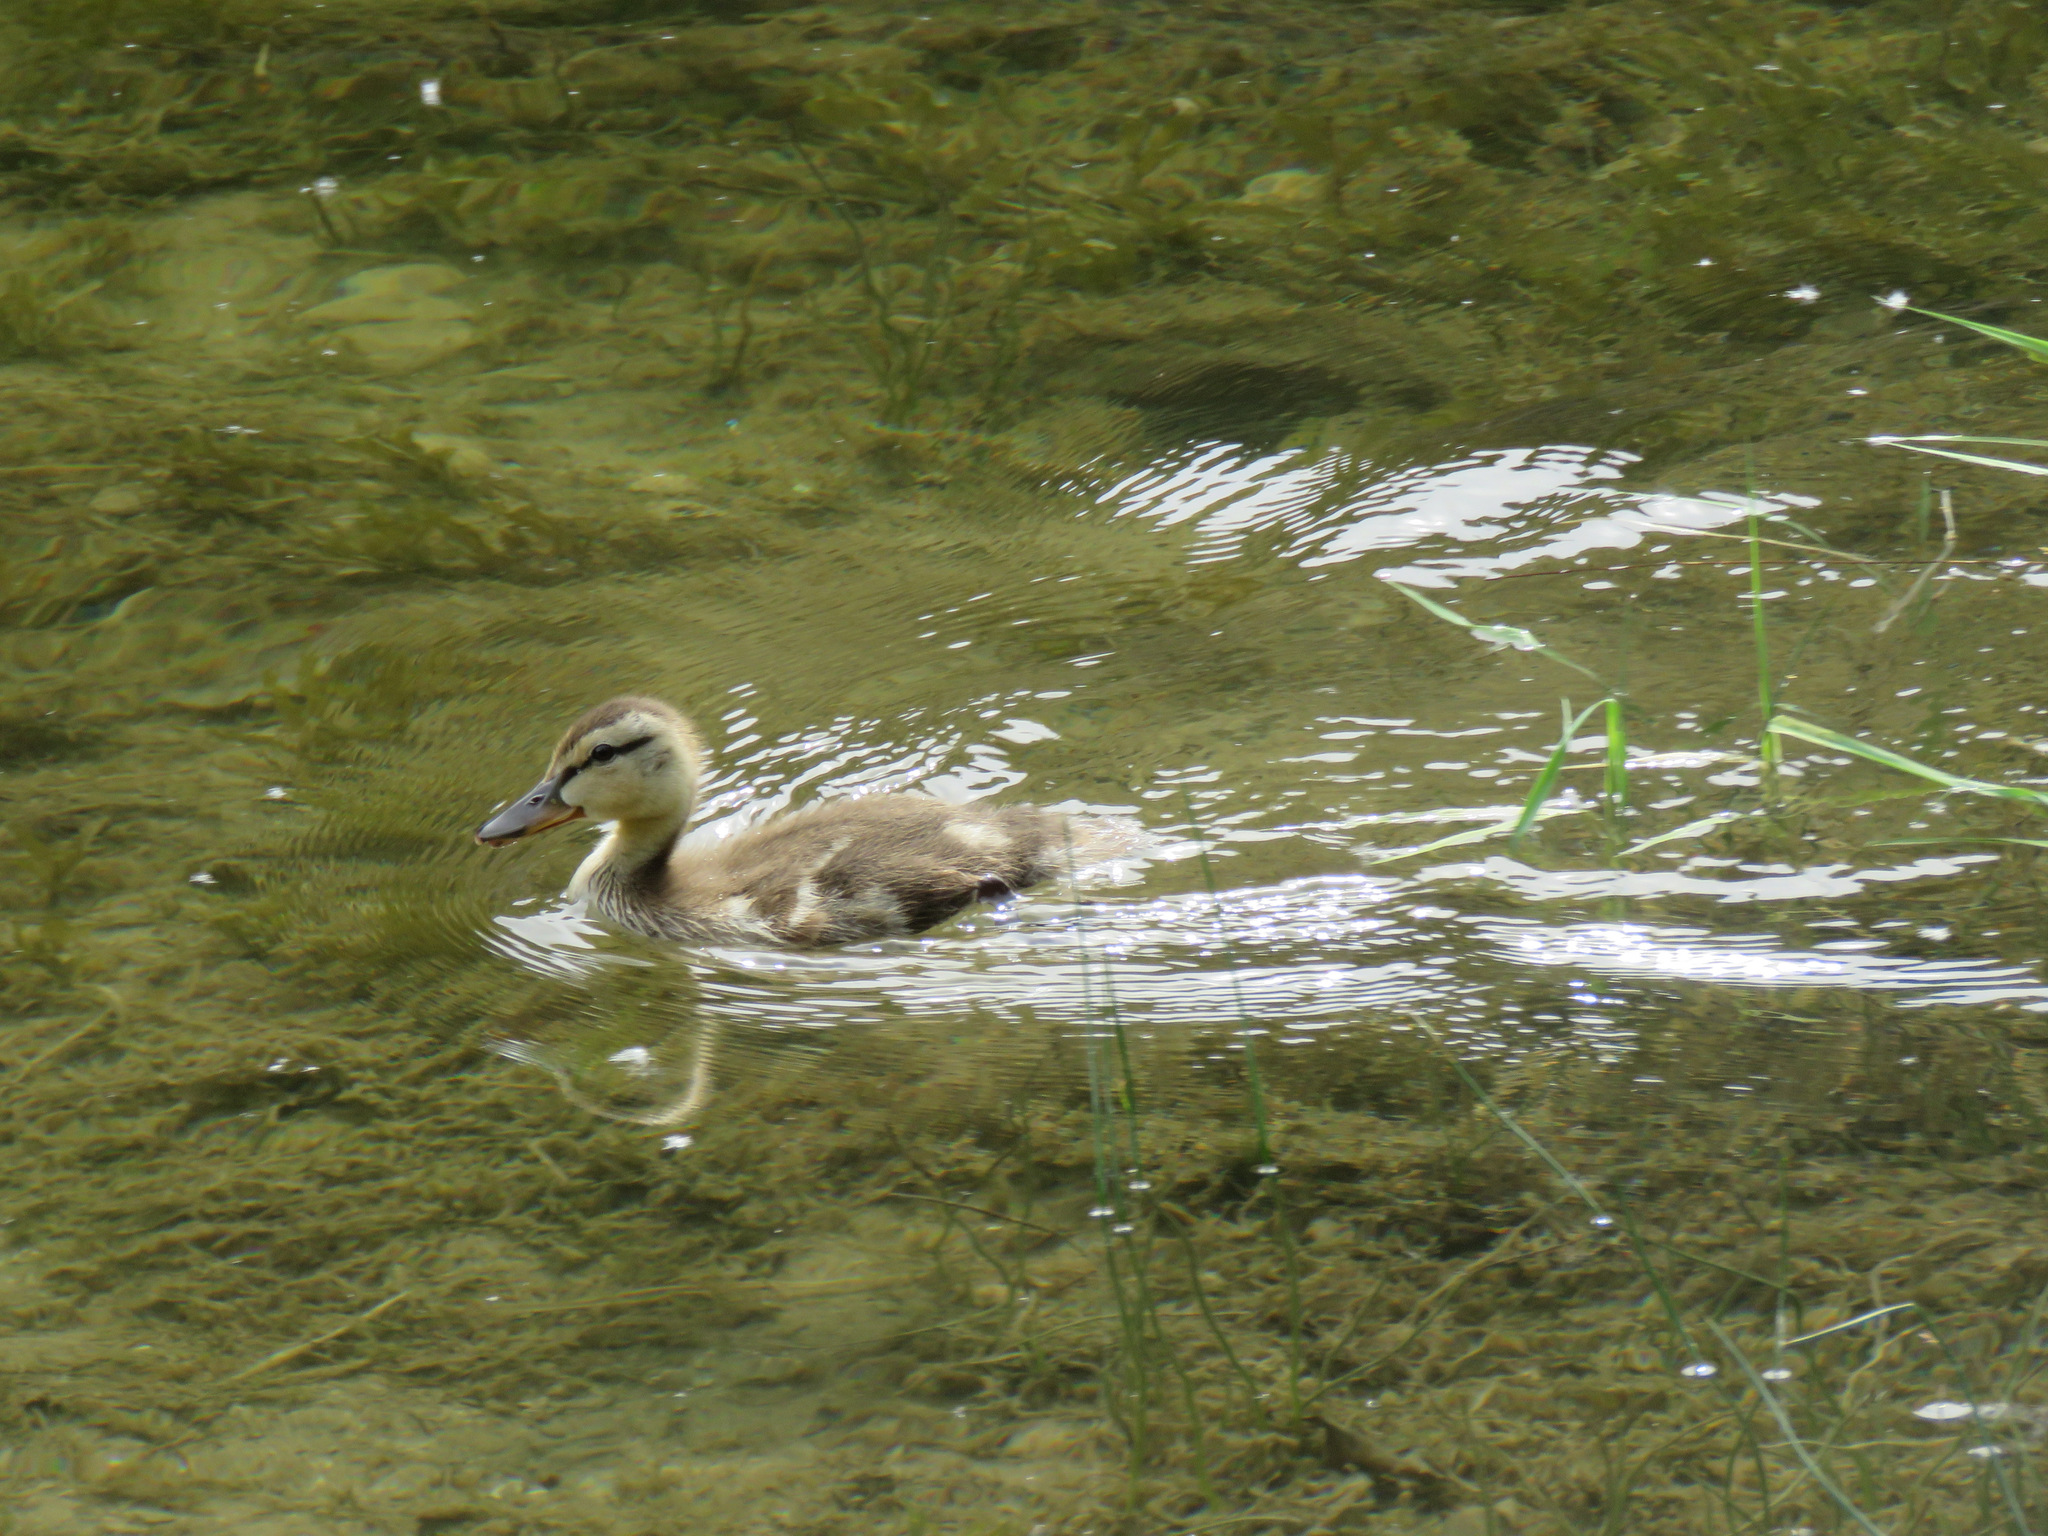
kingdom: Animalia
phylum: Chordata
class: Aves
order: Anseriformes
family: Anatidae
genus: Anas
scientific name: Anas platyrhynchos
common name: Mallard
